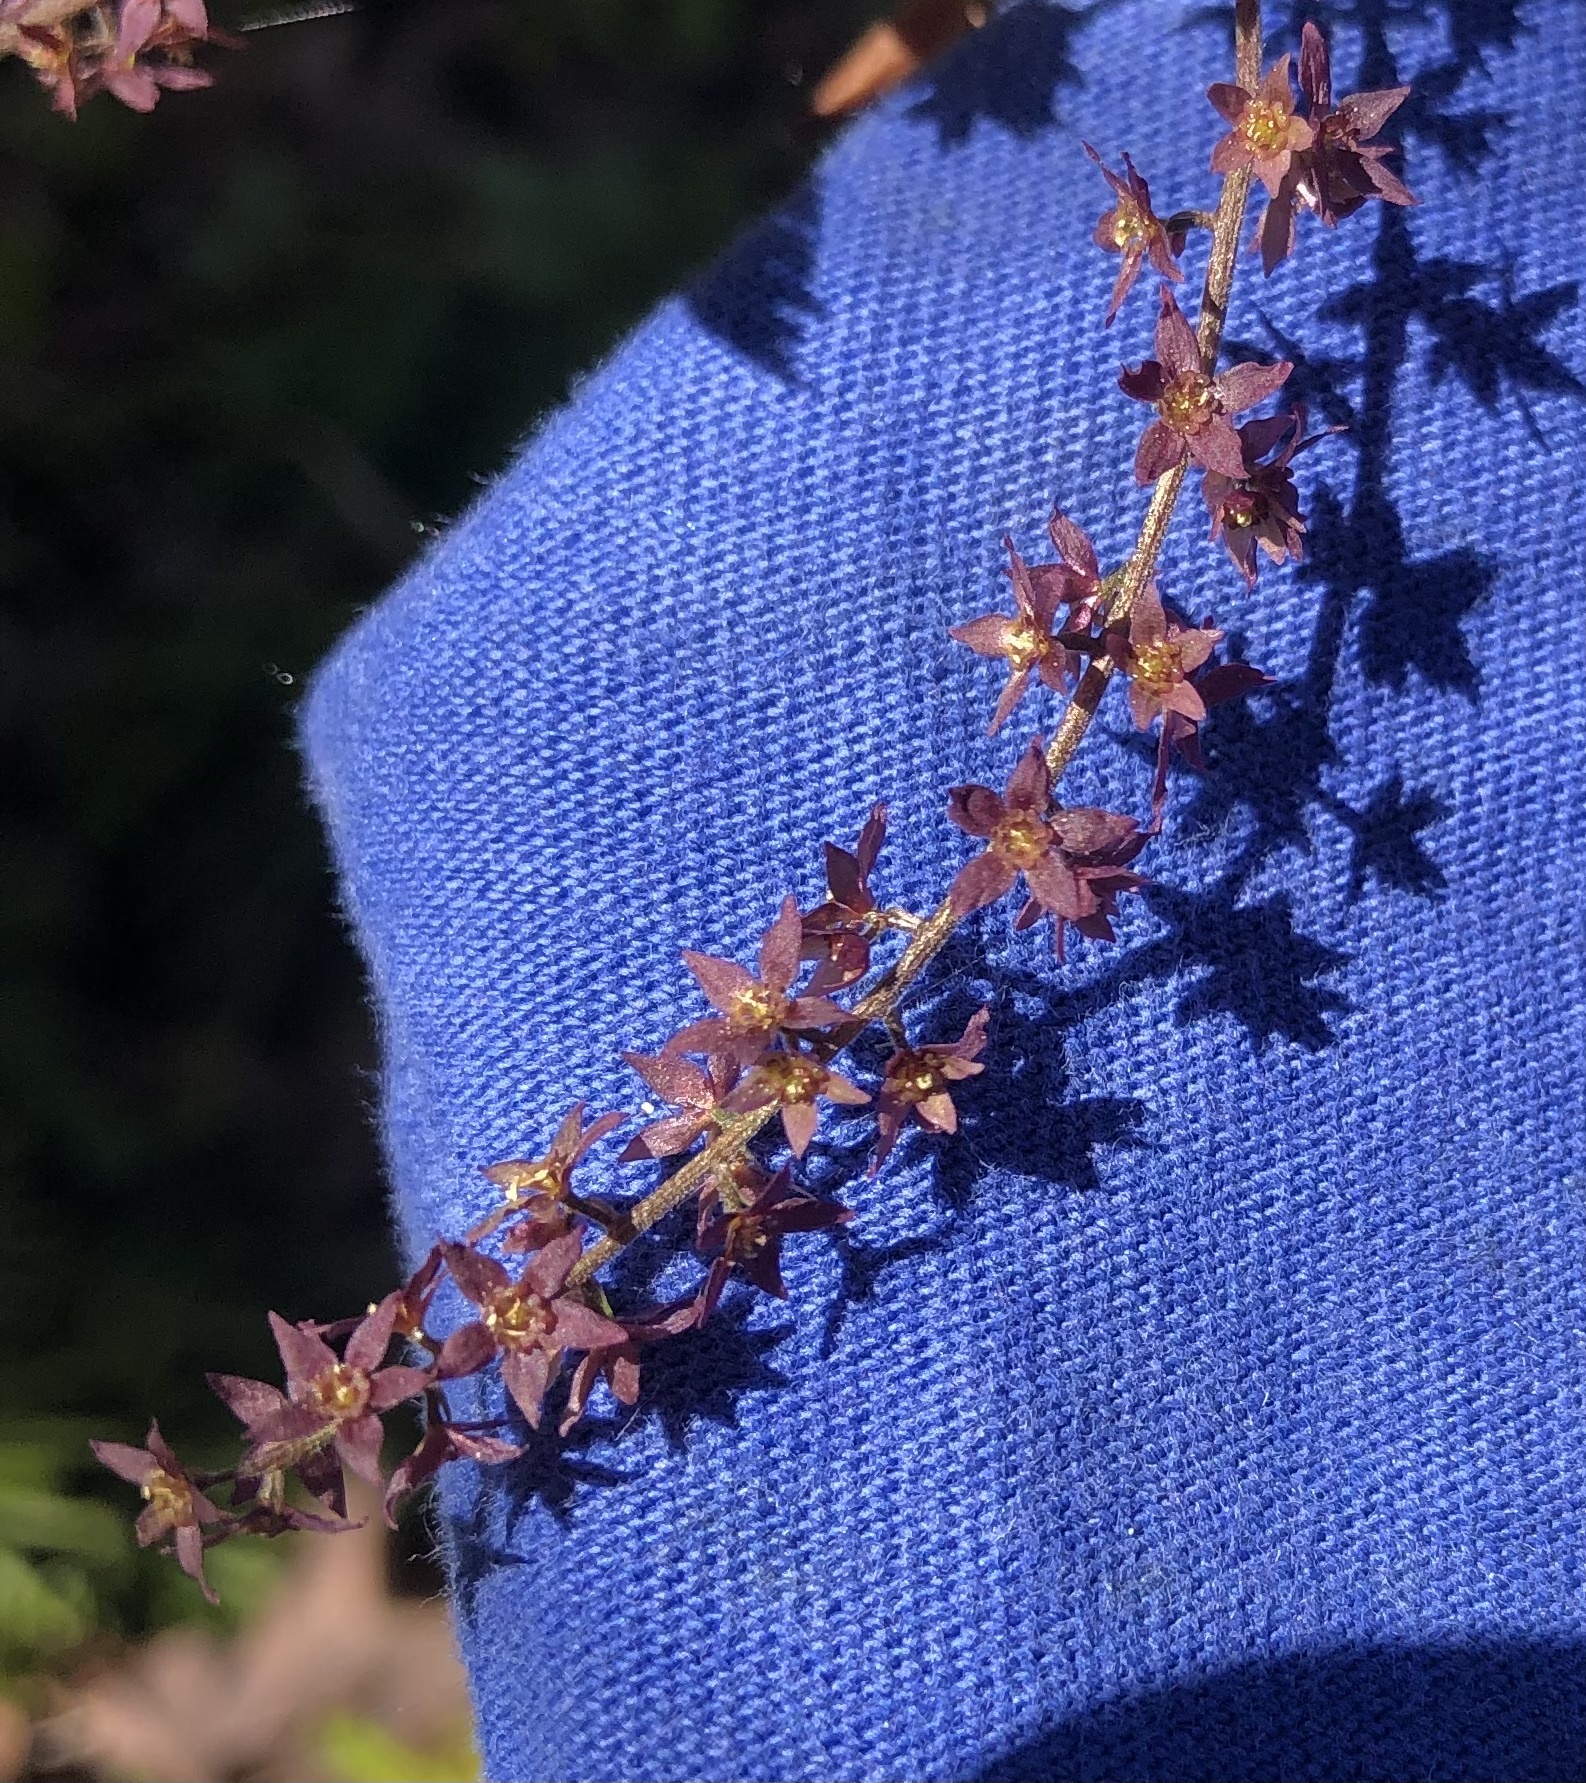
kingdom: Plantae
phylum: Tracheophyta
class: Magnoliopsida
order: Ranunculales
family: Ranunculaceae
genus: Xanthorhiza
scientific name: Xanthorhiza simplicissima
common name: Yellowroot
